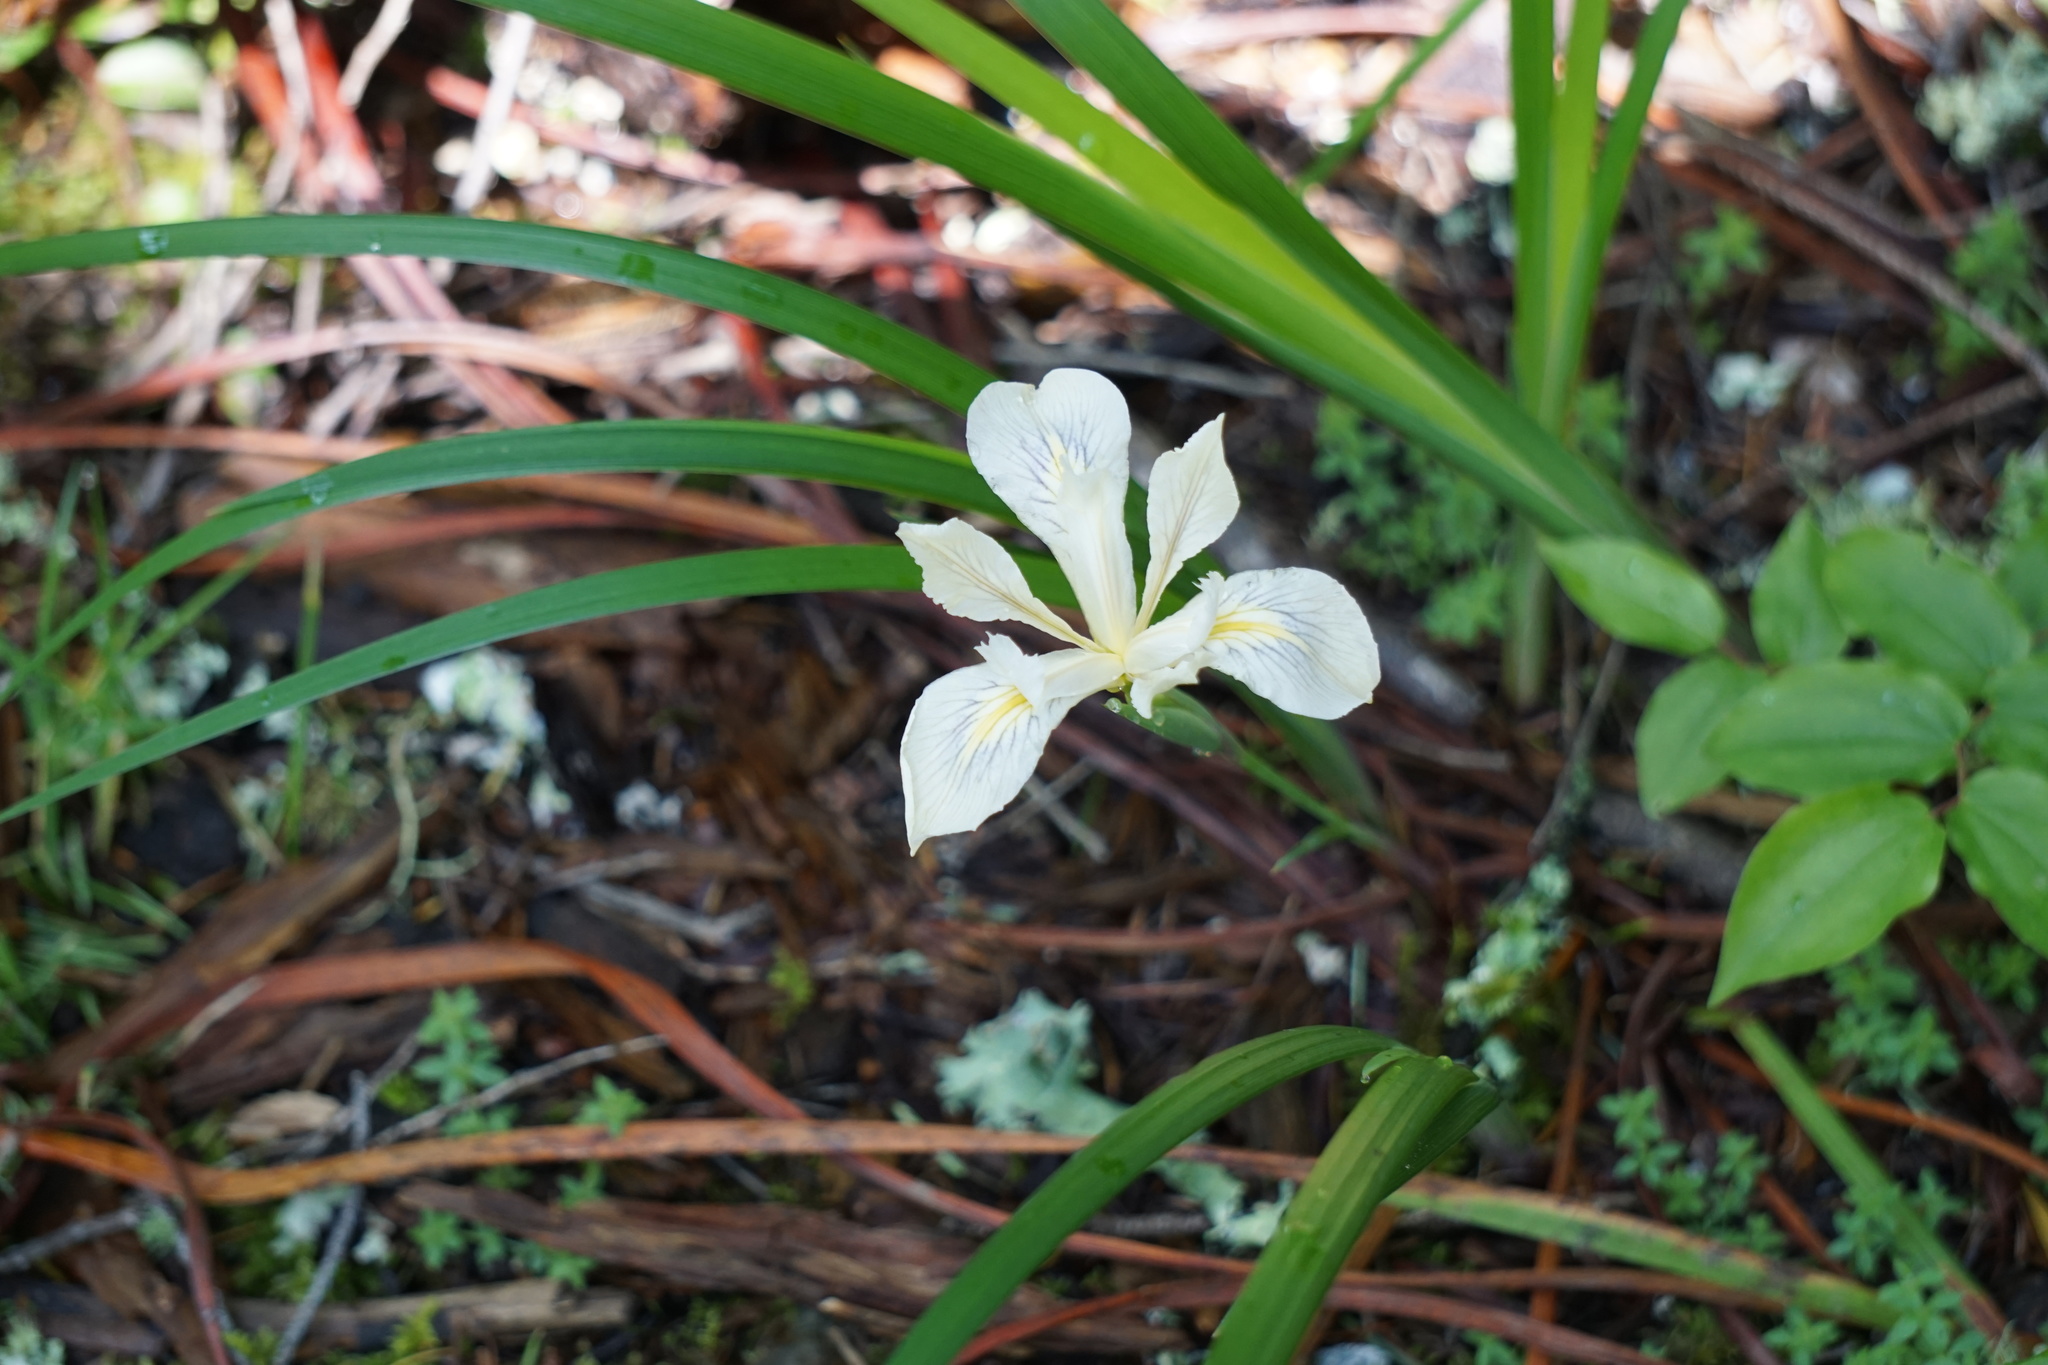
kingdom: Plantae
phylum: Tracheophyta
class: Liliopsida
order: Asparagales
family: Iridaceae
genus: Iris
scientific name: Iris douglasiana
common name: Marin iris
